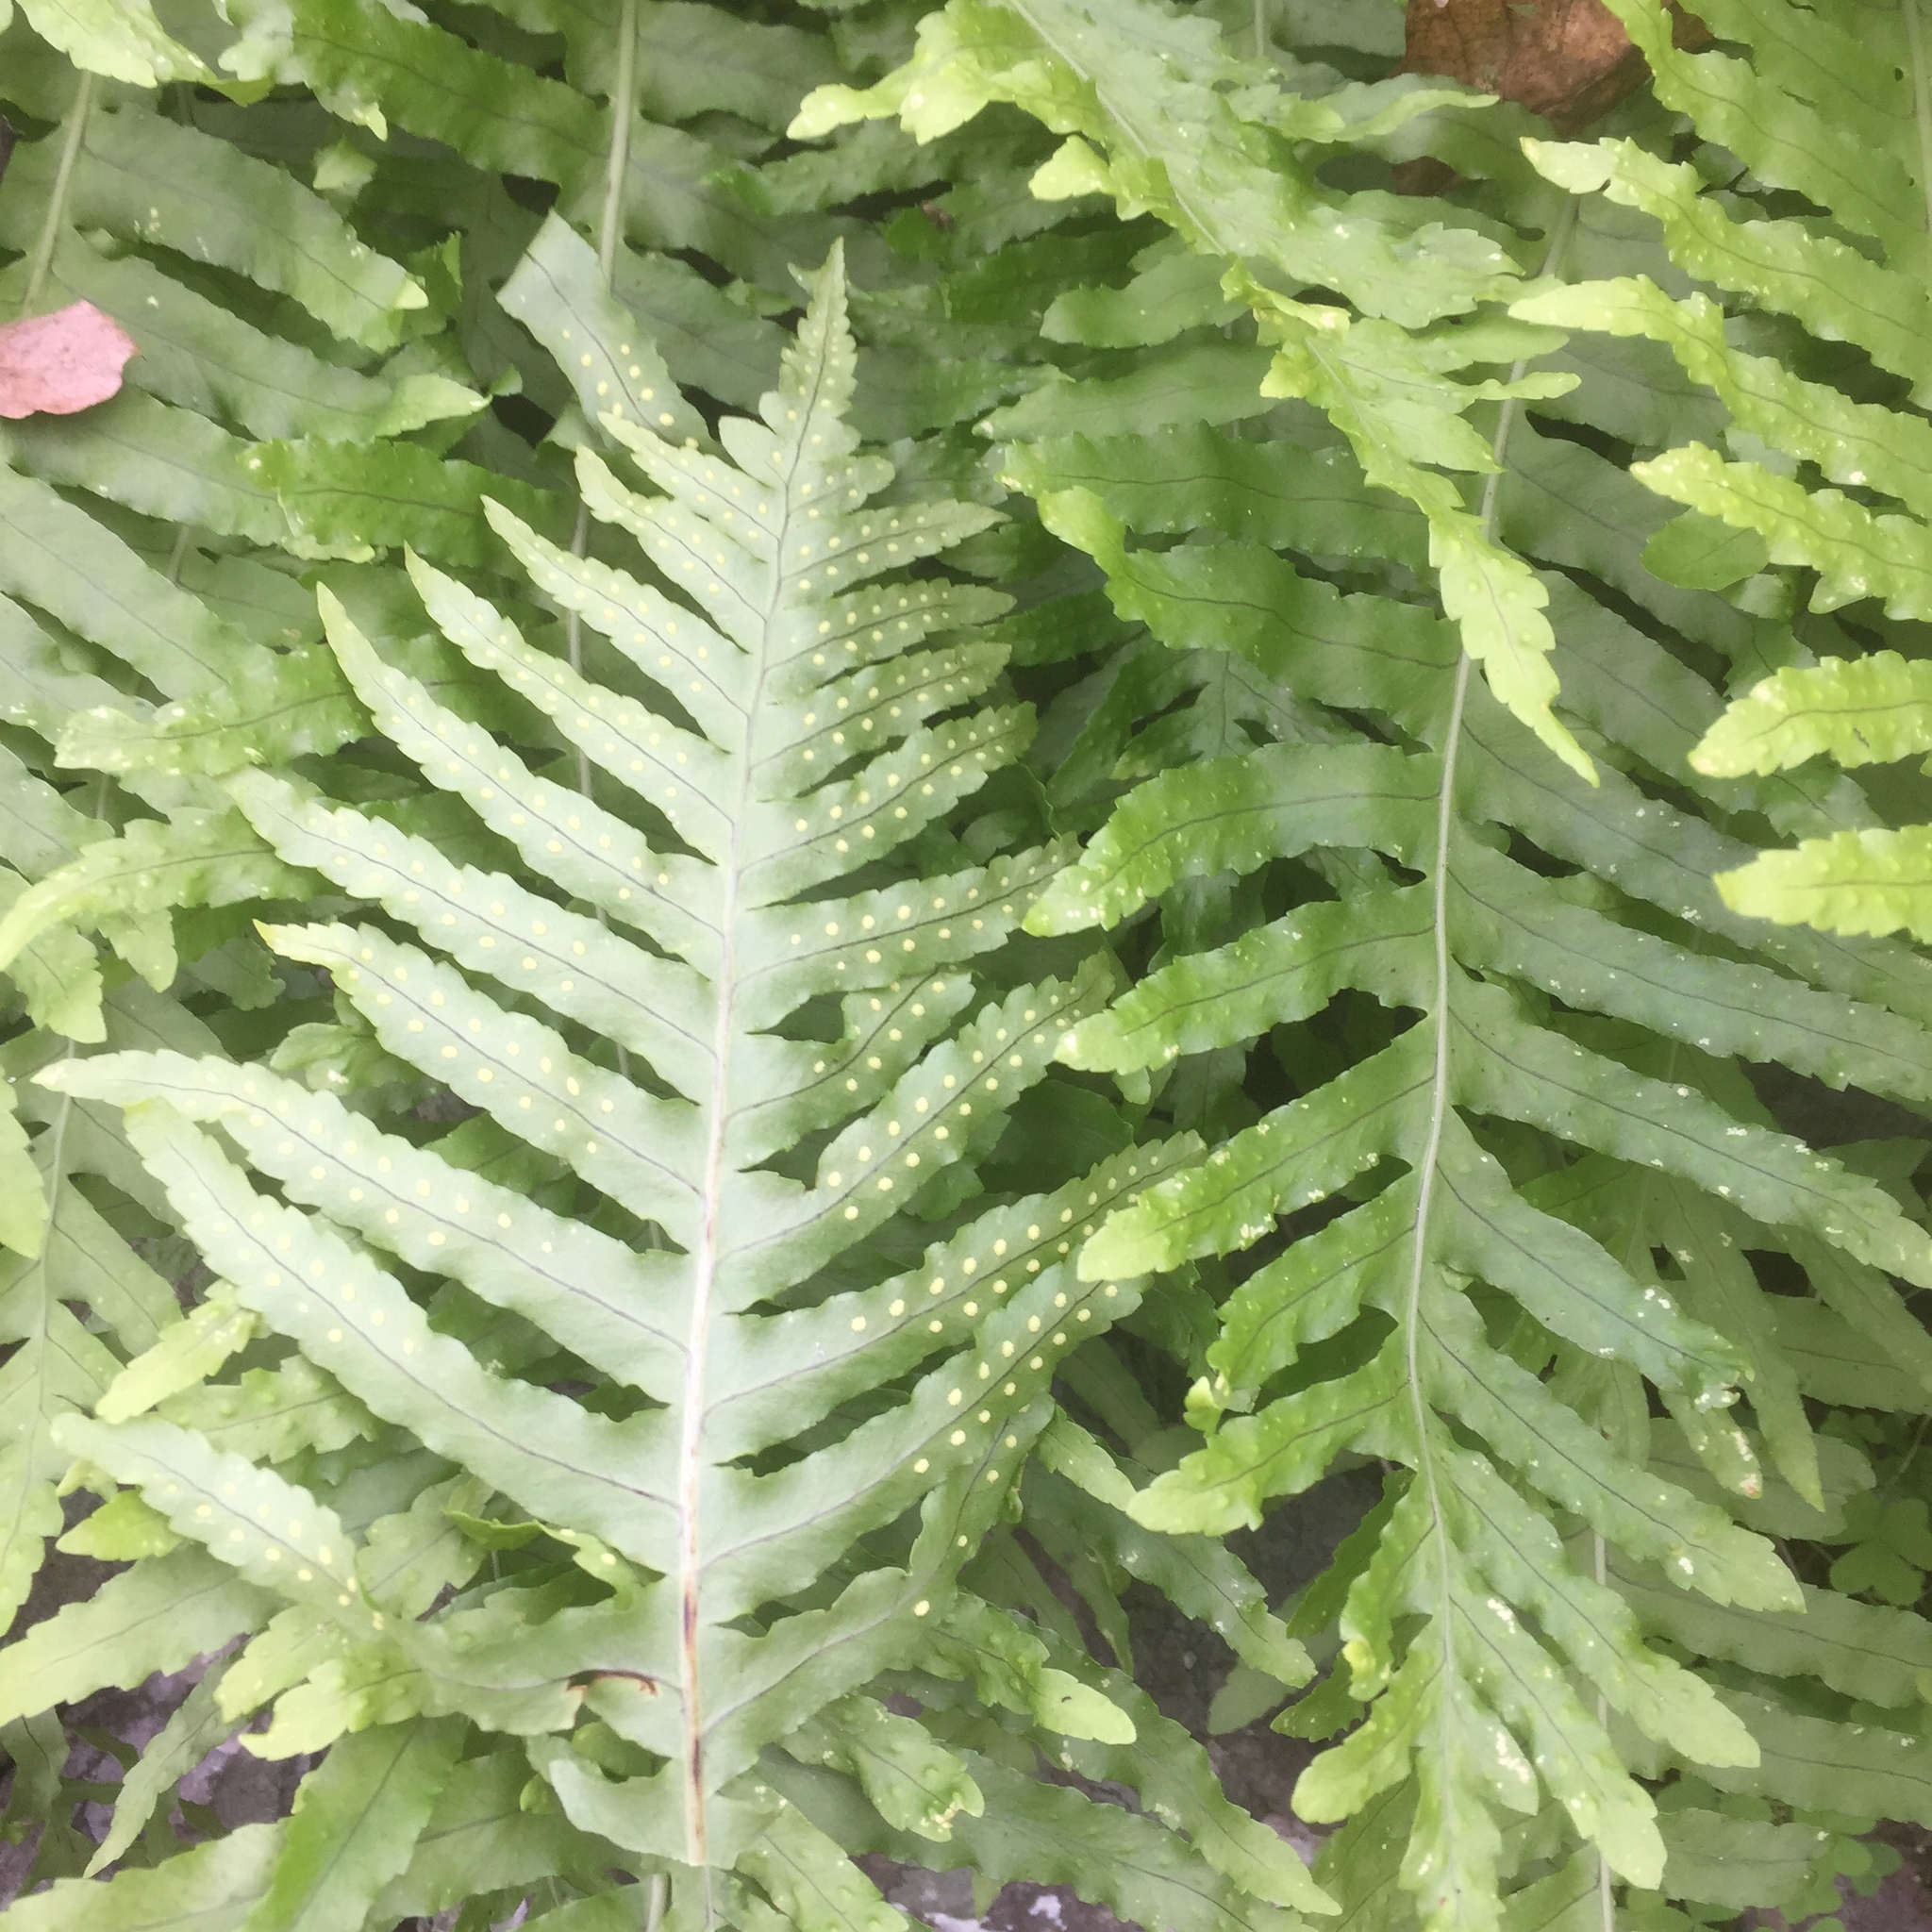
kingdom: Plantae
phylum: Tracheophyta
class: Polypodiopsida
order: Polypodiales
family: Polypodiaceae
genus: Polypodium
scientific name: Polypodium macaronesicum
